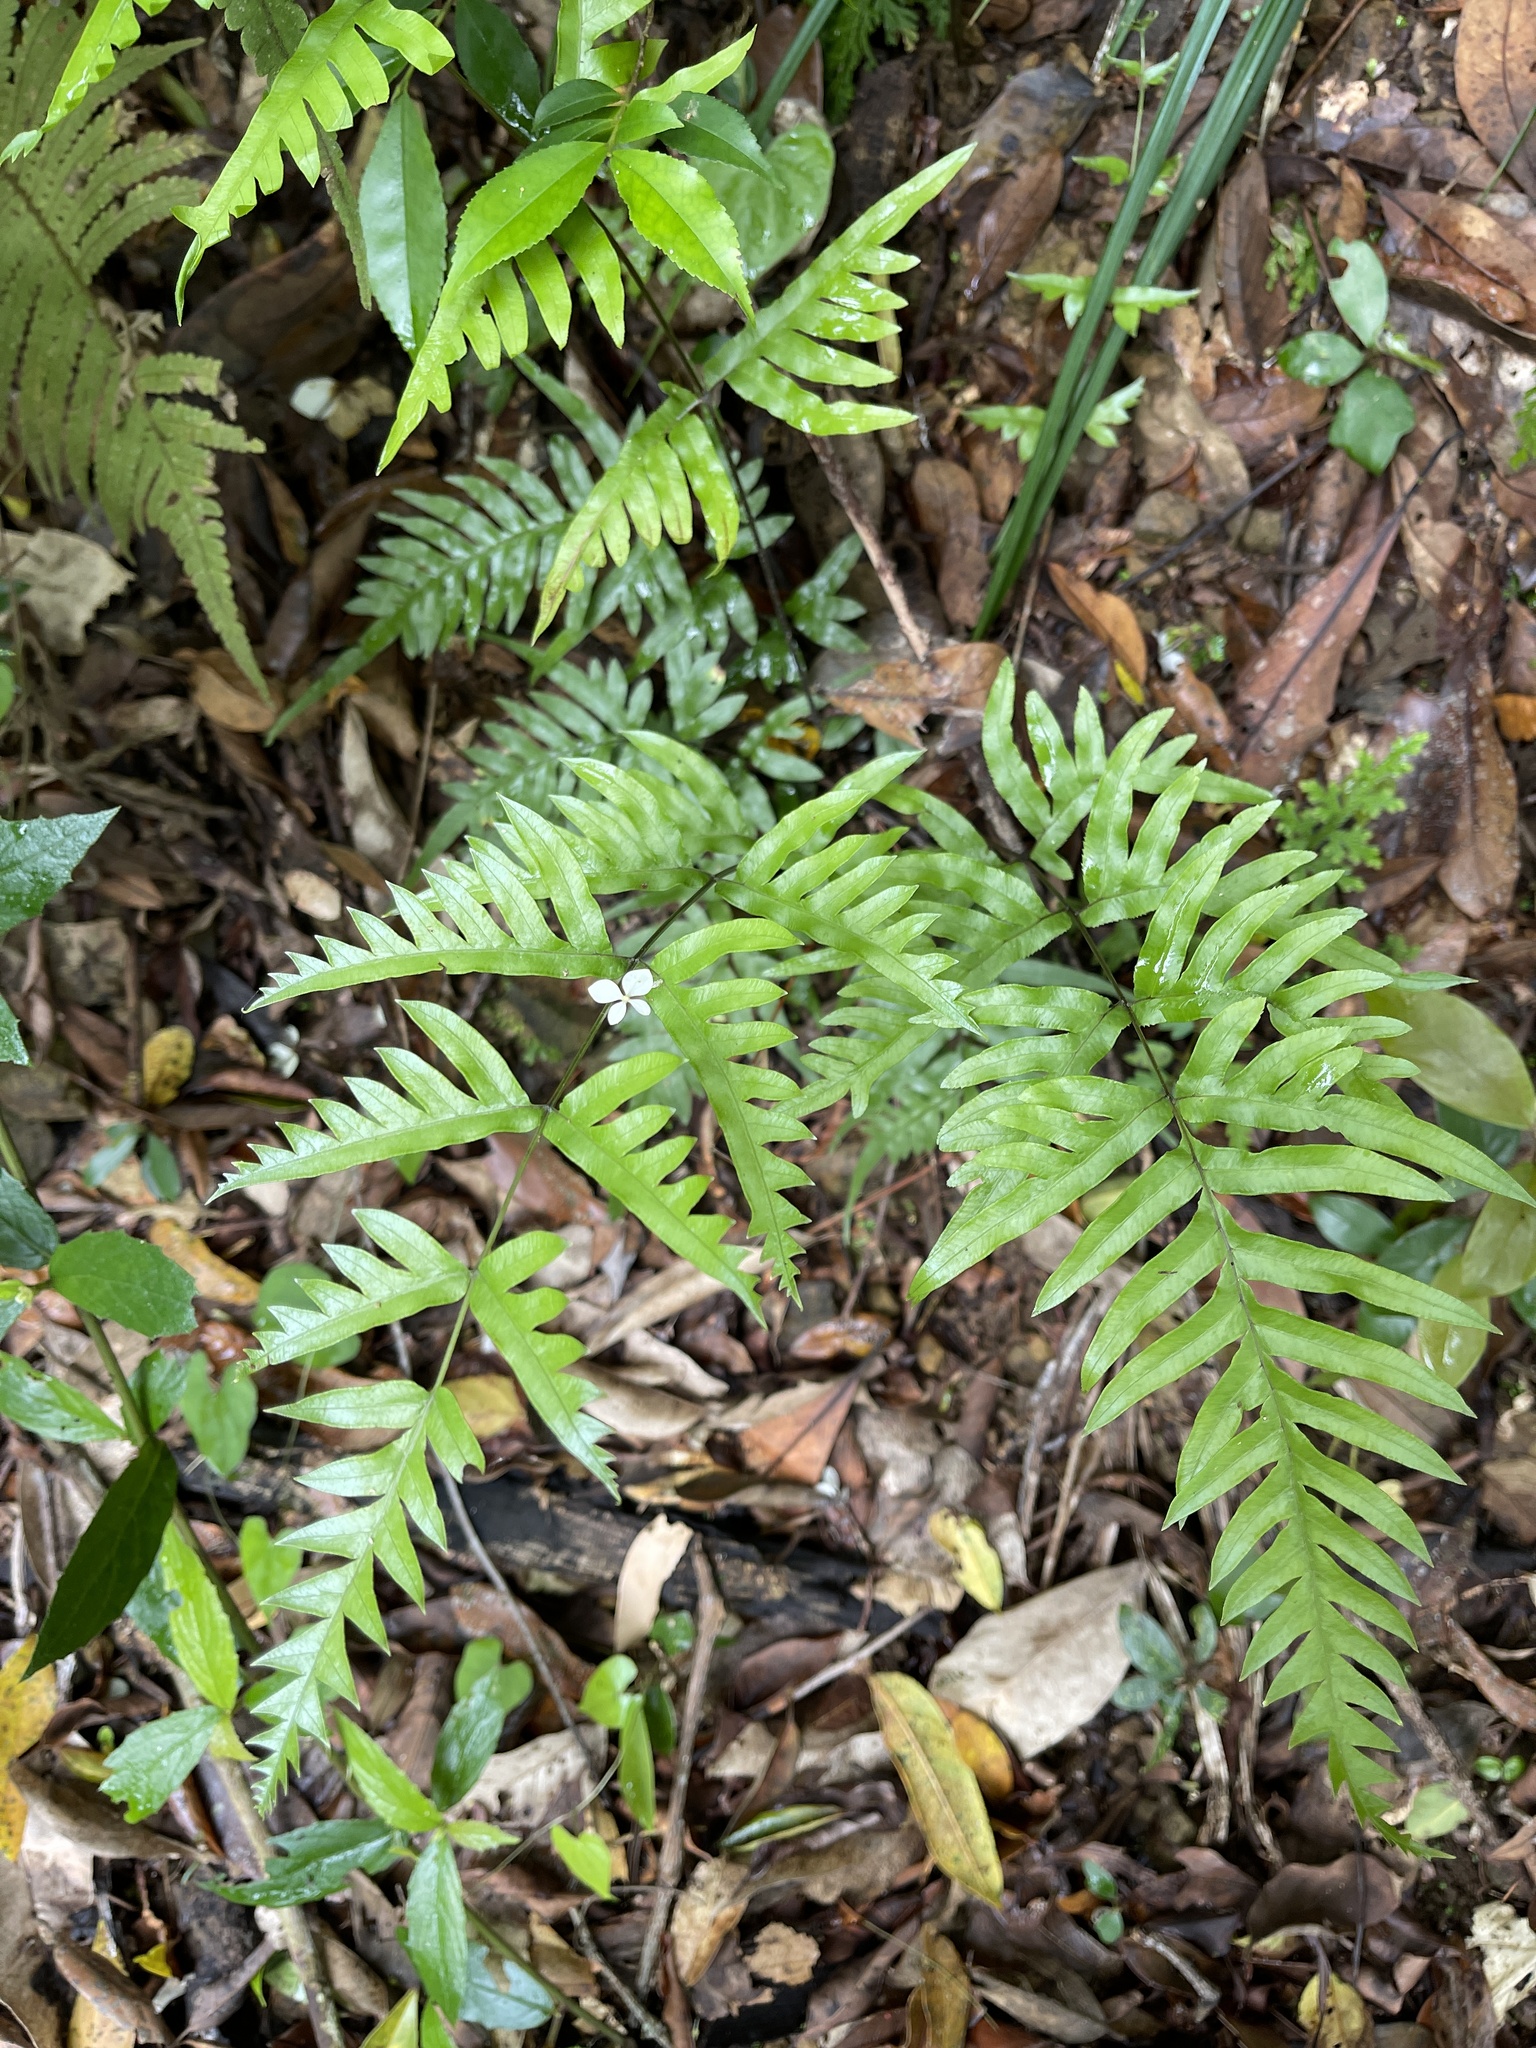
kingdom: Plantae
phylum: Tracheophyta
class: Polypodiopsida
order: Polypodiales
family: Pteridaceae
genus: Pteris
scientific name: Pteris semipinnata
